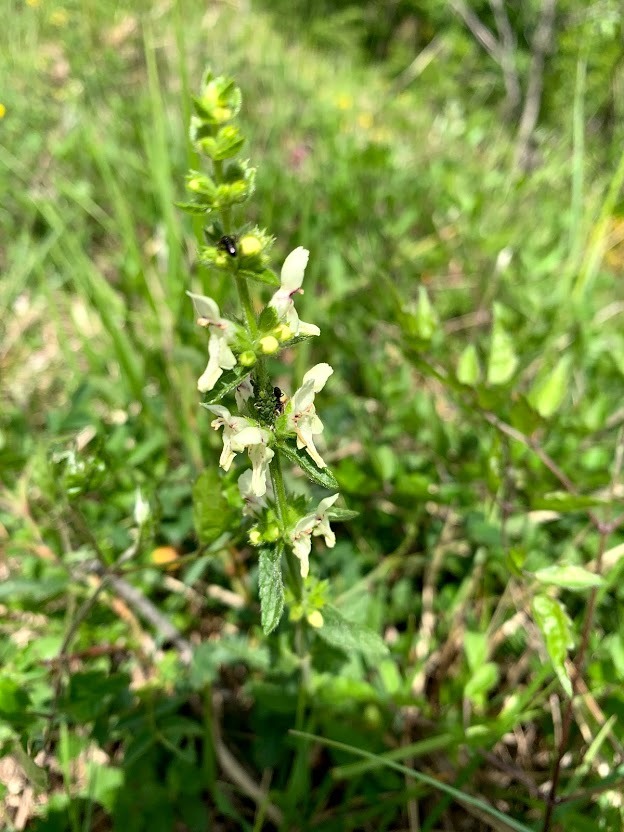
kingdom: Plantae
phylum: Tracheophyta
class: Magnoliopsida
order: Lamiales
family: Lamiaceae
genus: Stachys
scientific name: Stachys recta
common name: Perennial yellow-woundwort
